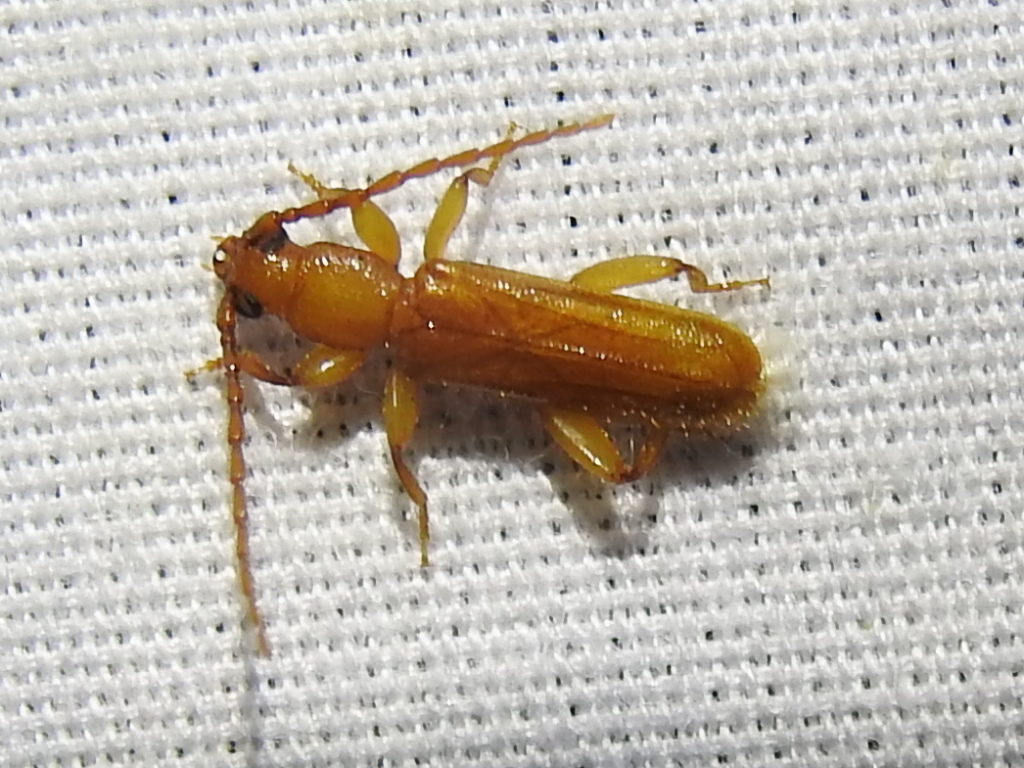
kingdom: Animalia
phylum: Arthropoda
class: Insecta
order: Coleoptera
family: Cerambycidae
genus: Smodicum
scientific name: Smodicum cucujiforme
